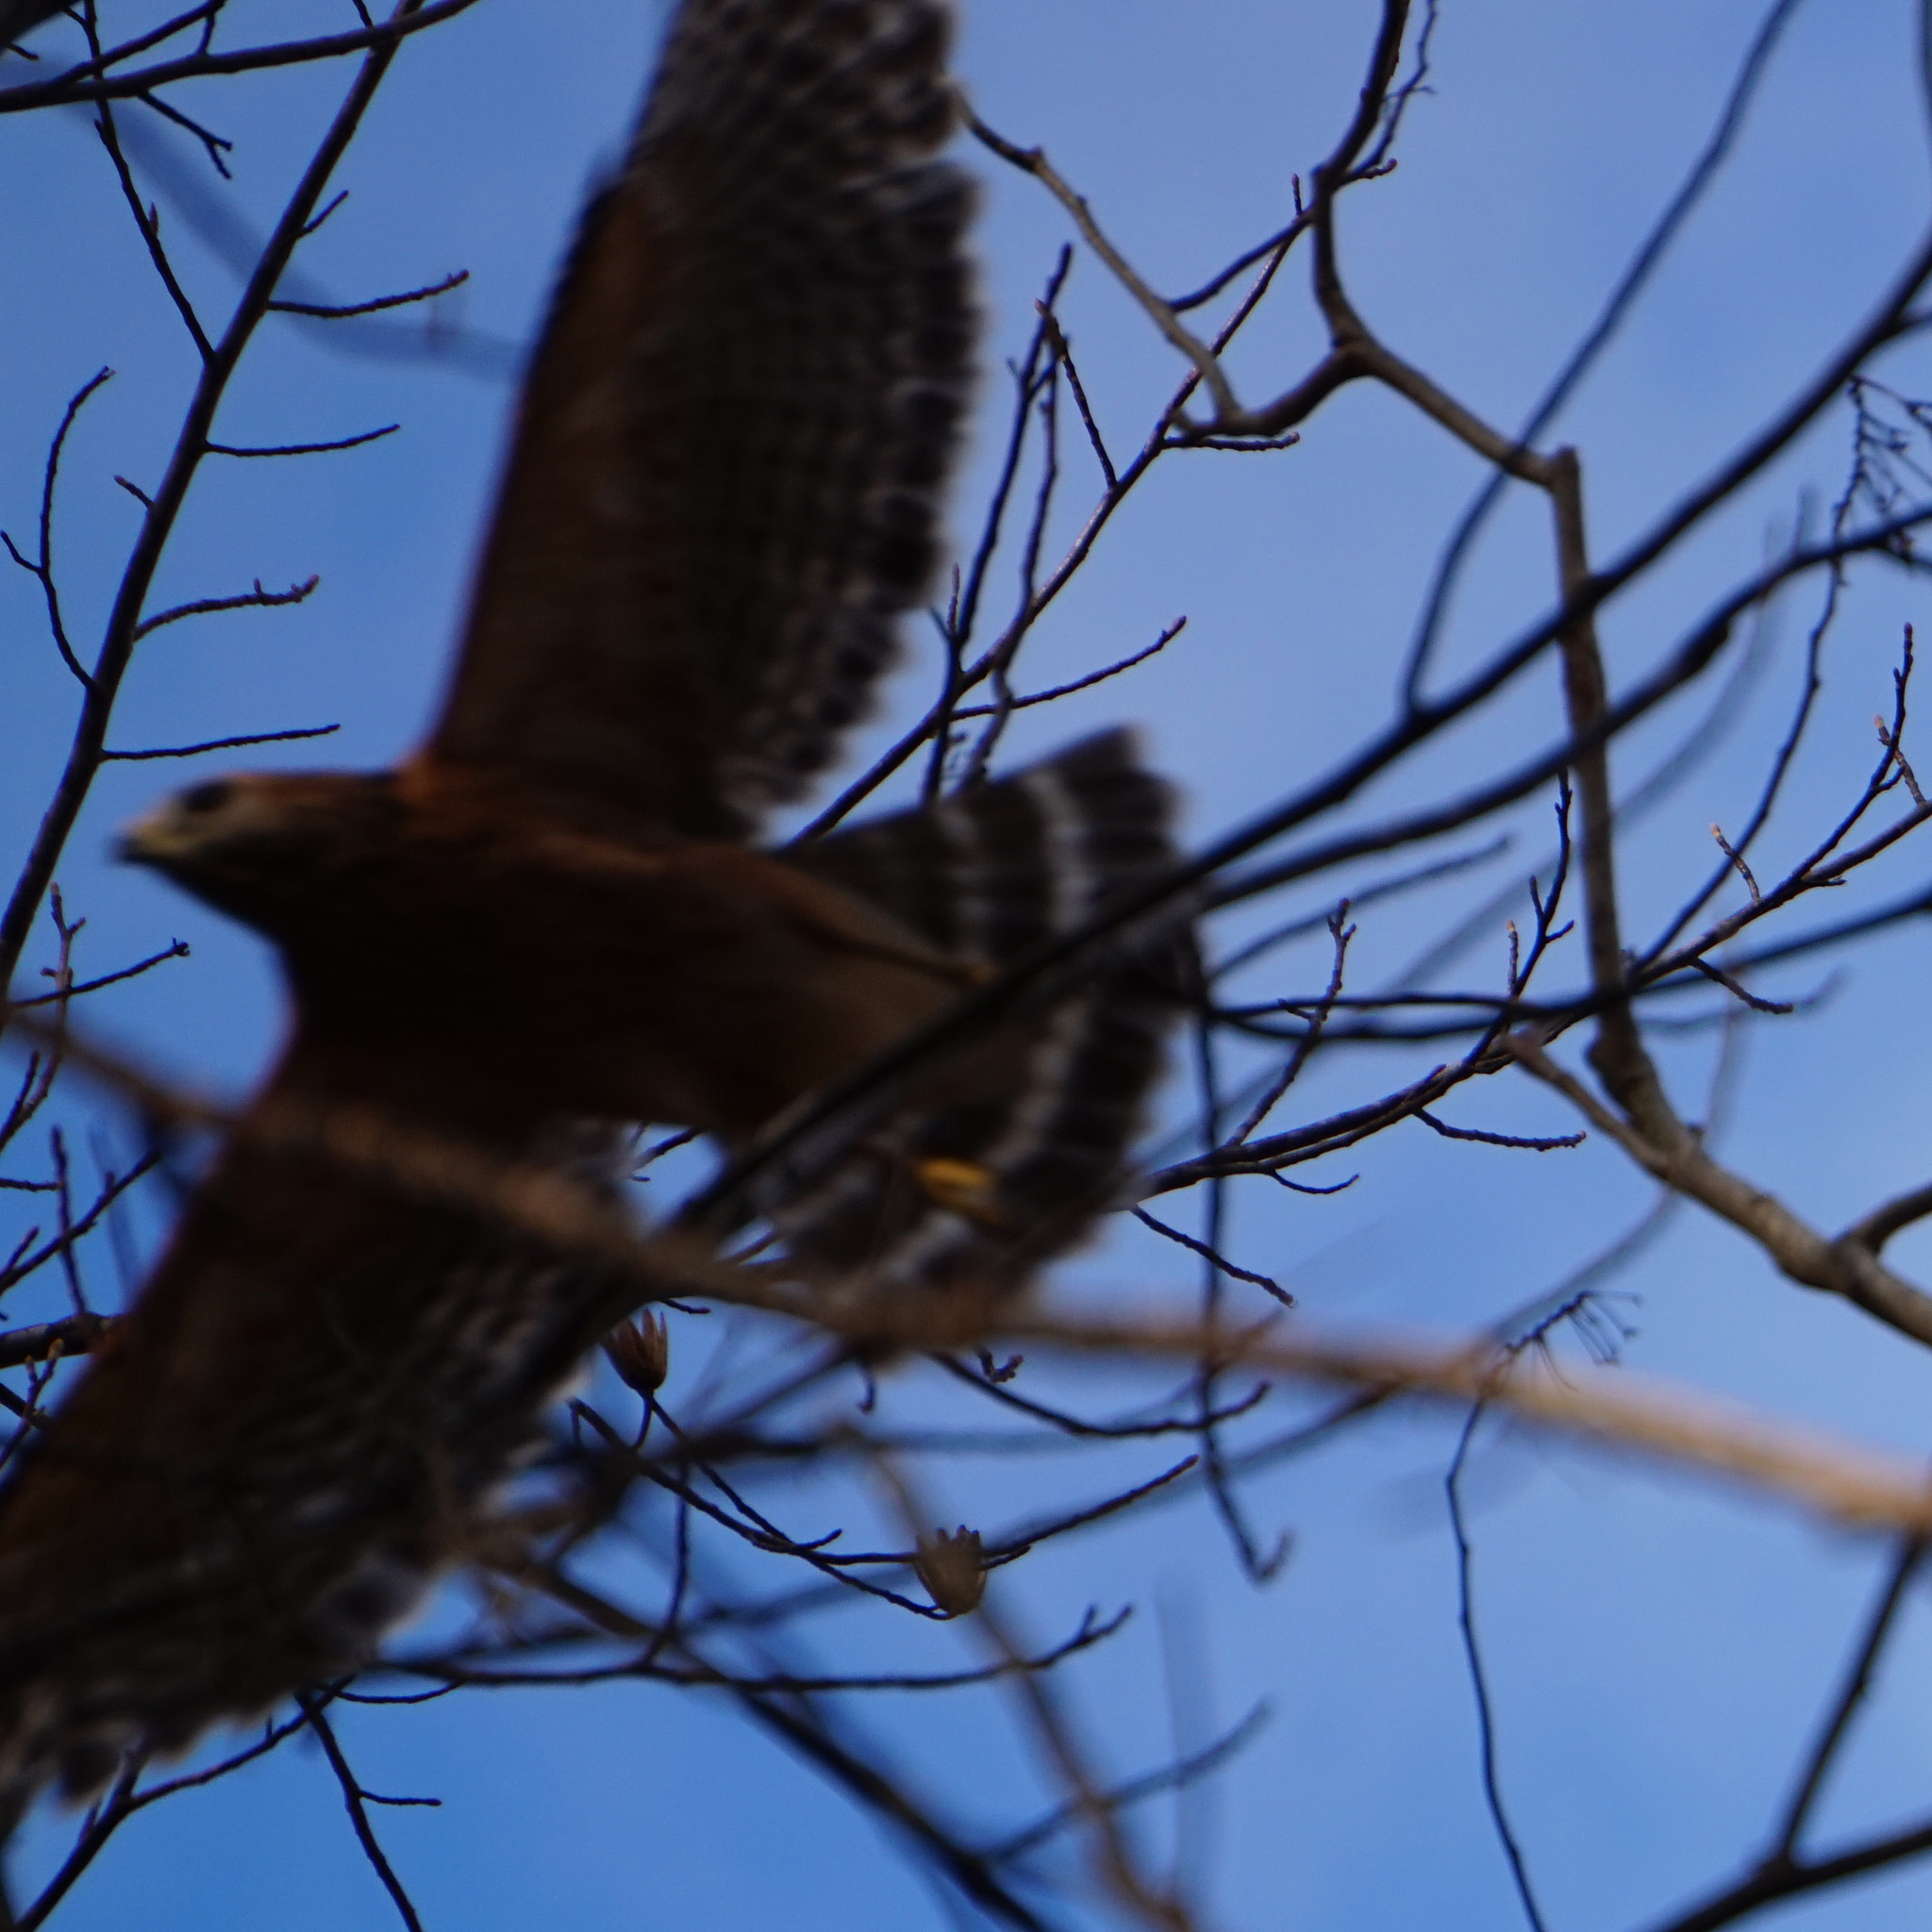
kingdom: Animalia
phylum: Chordata
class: Aves
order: Accipitriformes
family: Accipitridae
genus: Buteo
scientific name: Buteo lineatus
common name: Red-shouldered hawk
